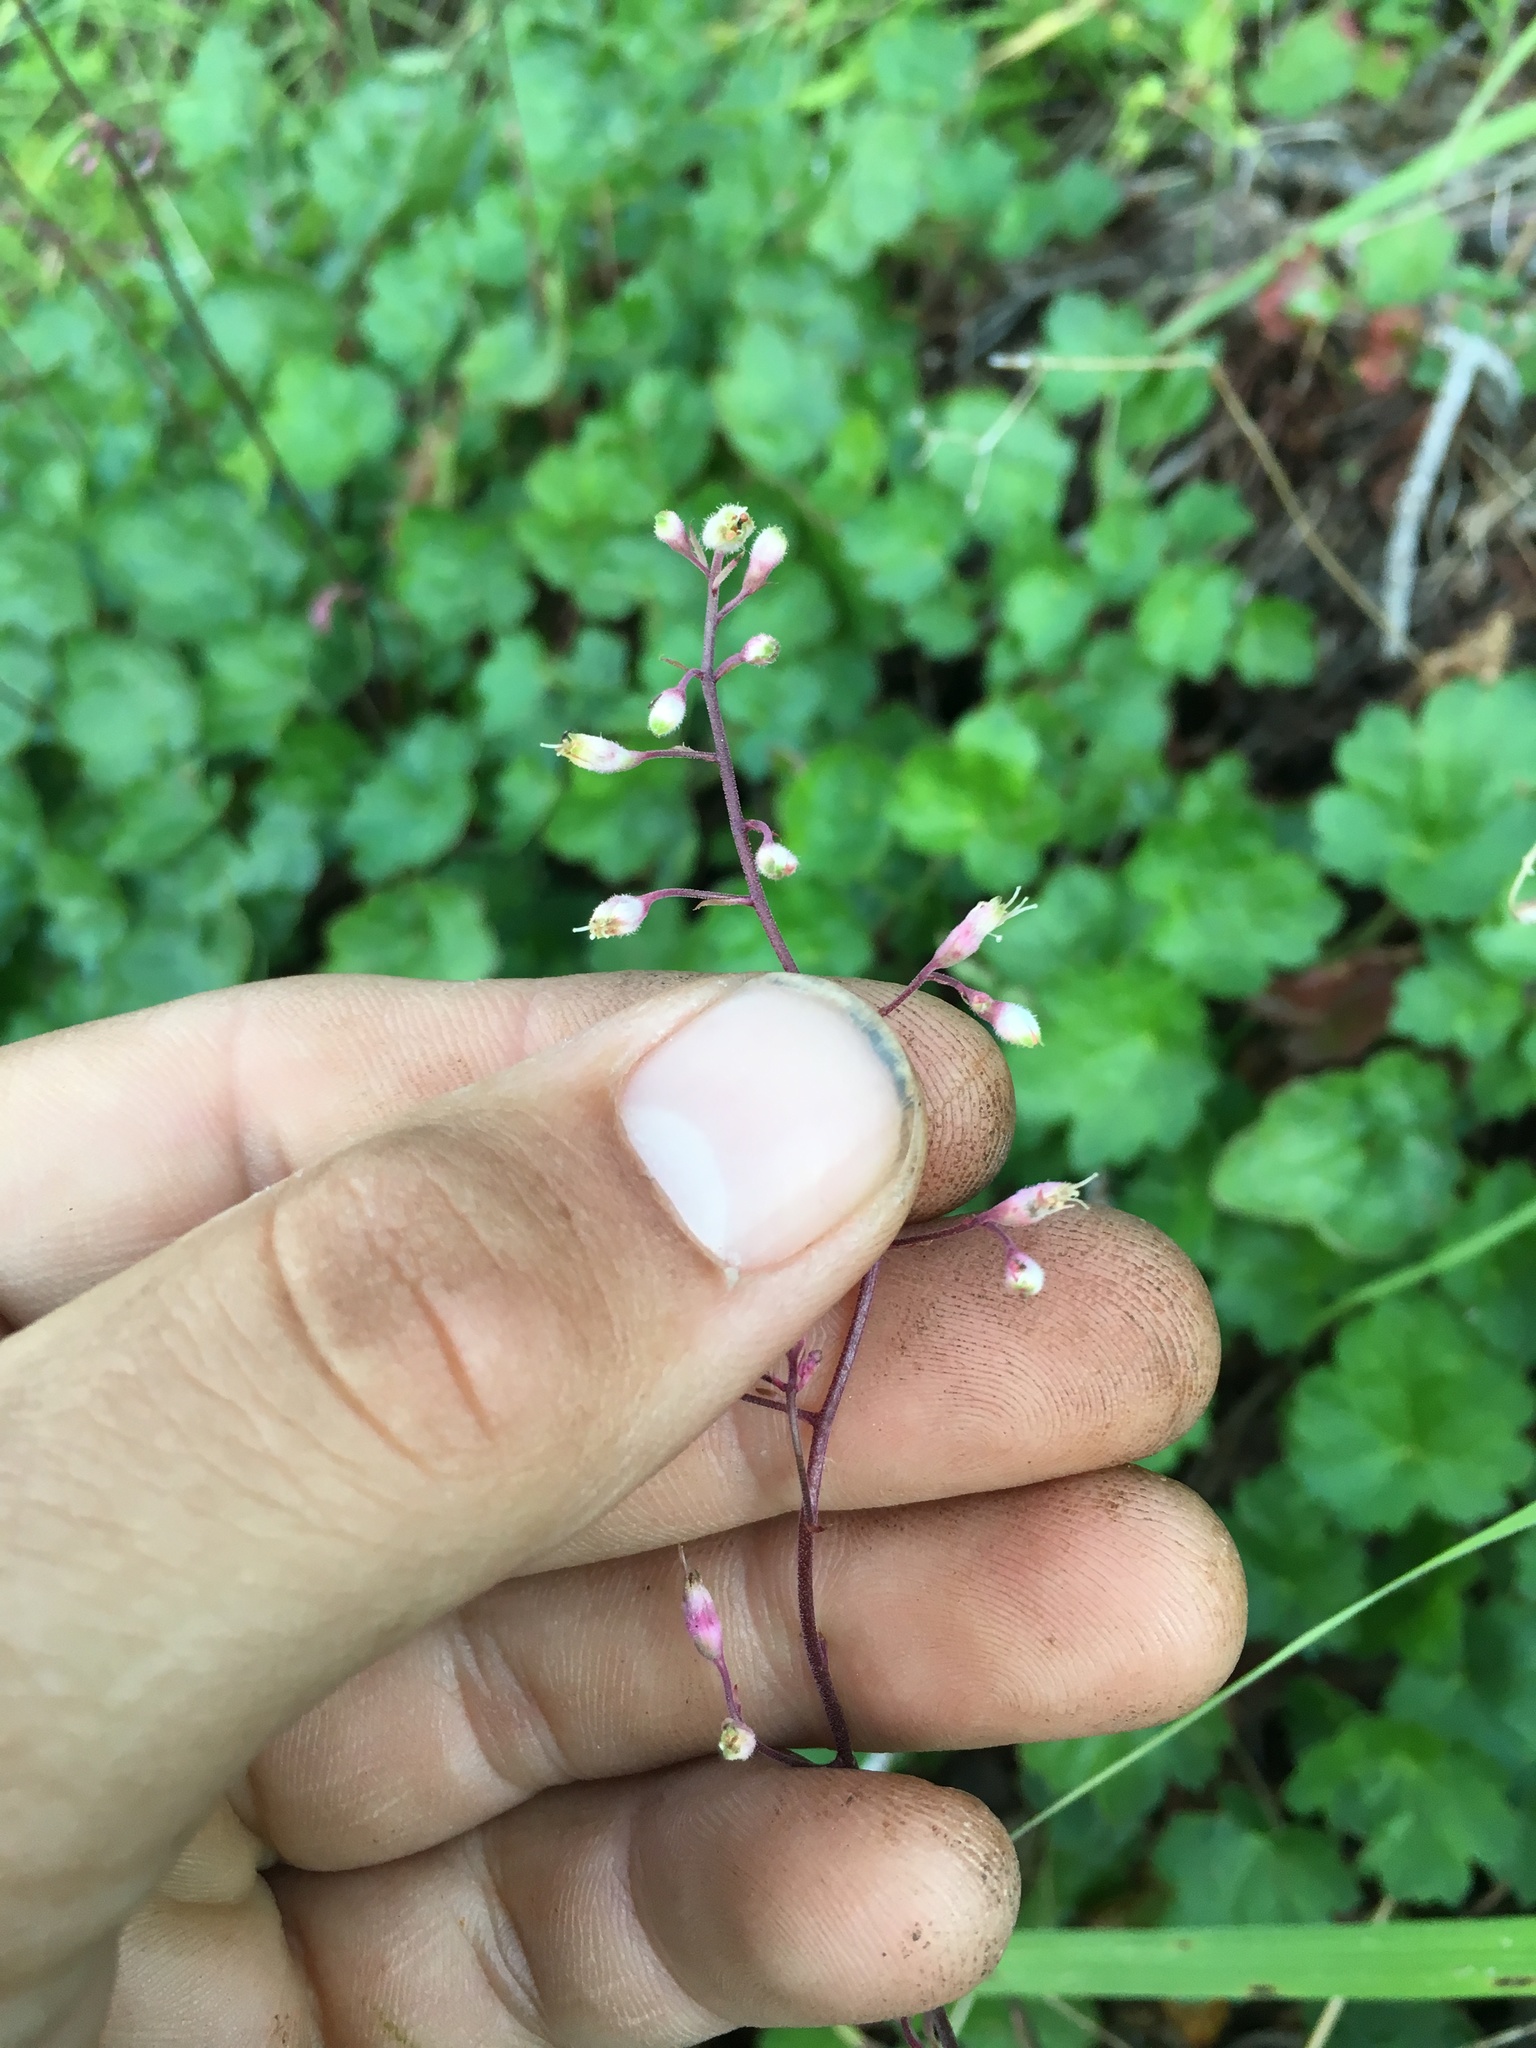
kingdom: Plantae
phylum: Tracheophyta
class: Magnoliopsida
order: Saxifragales
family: Saxifragaceae
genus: Heuchera
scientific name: Heuchera rubescens
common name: Jack-o'the-rocks
